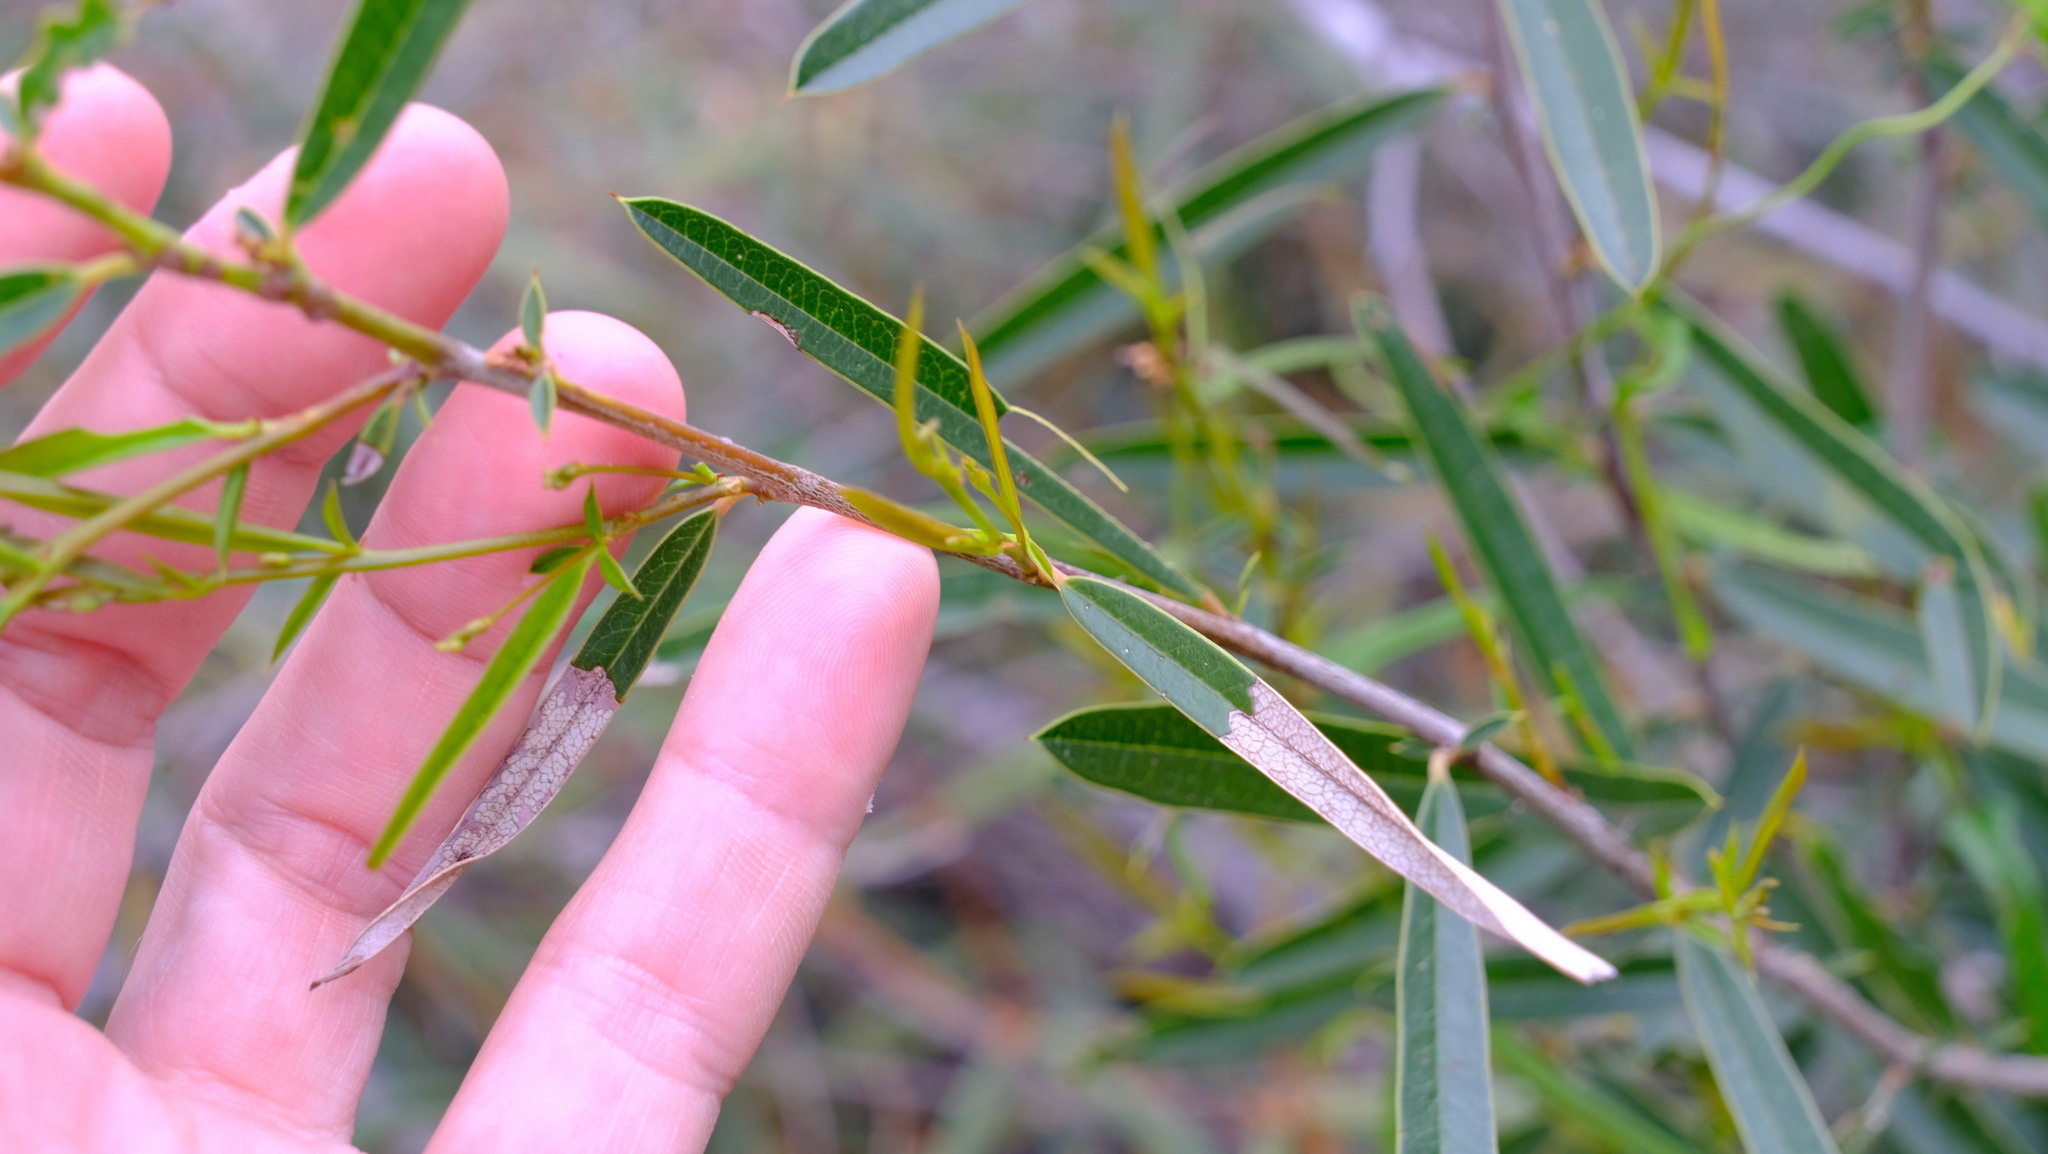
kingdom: Plantae
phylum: Tracheophyta
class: Magnoliopsida
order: Fabales
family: Fabaceae
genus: Labichea
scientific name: Labichea lanceolata
